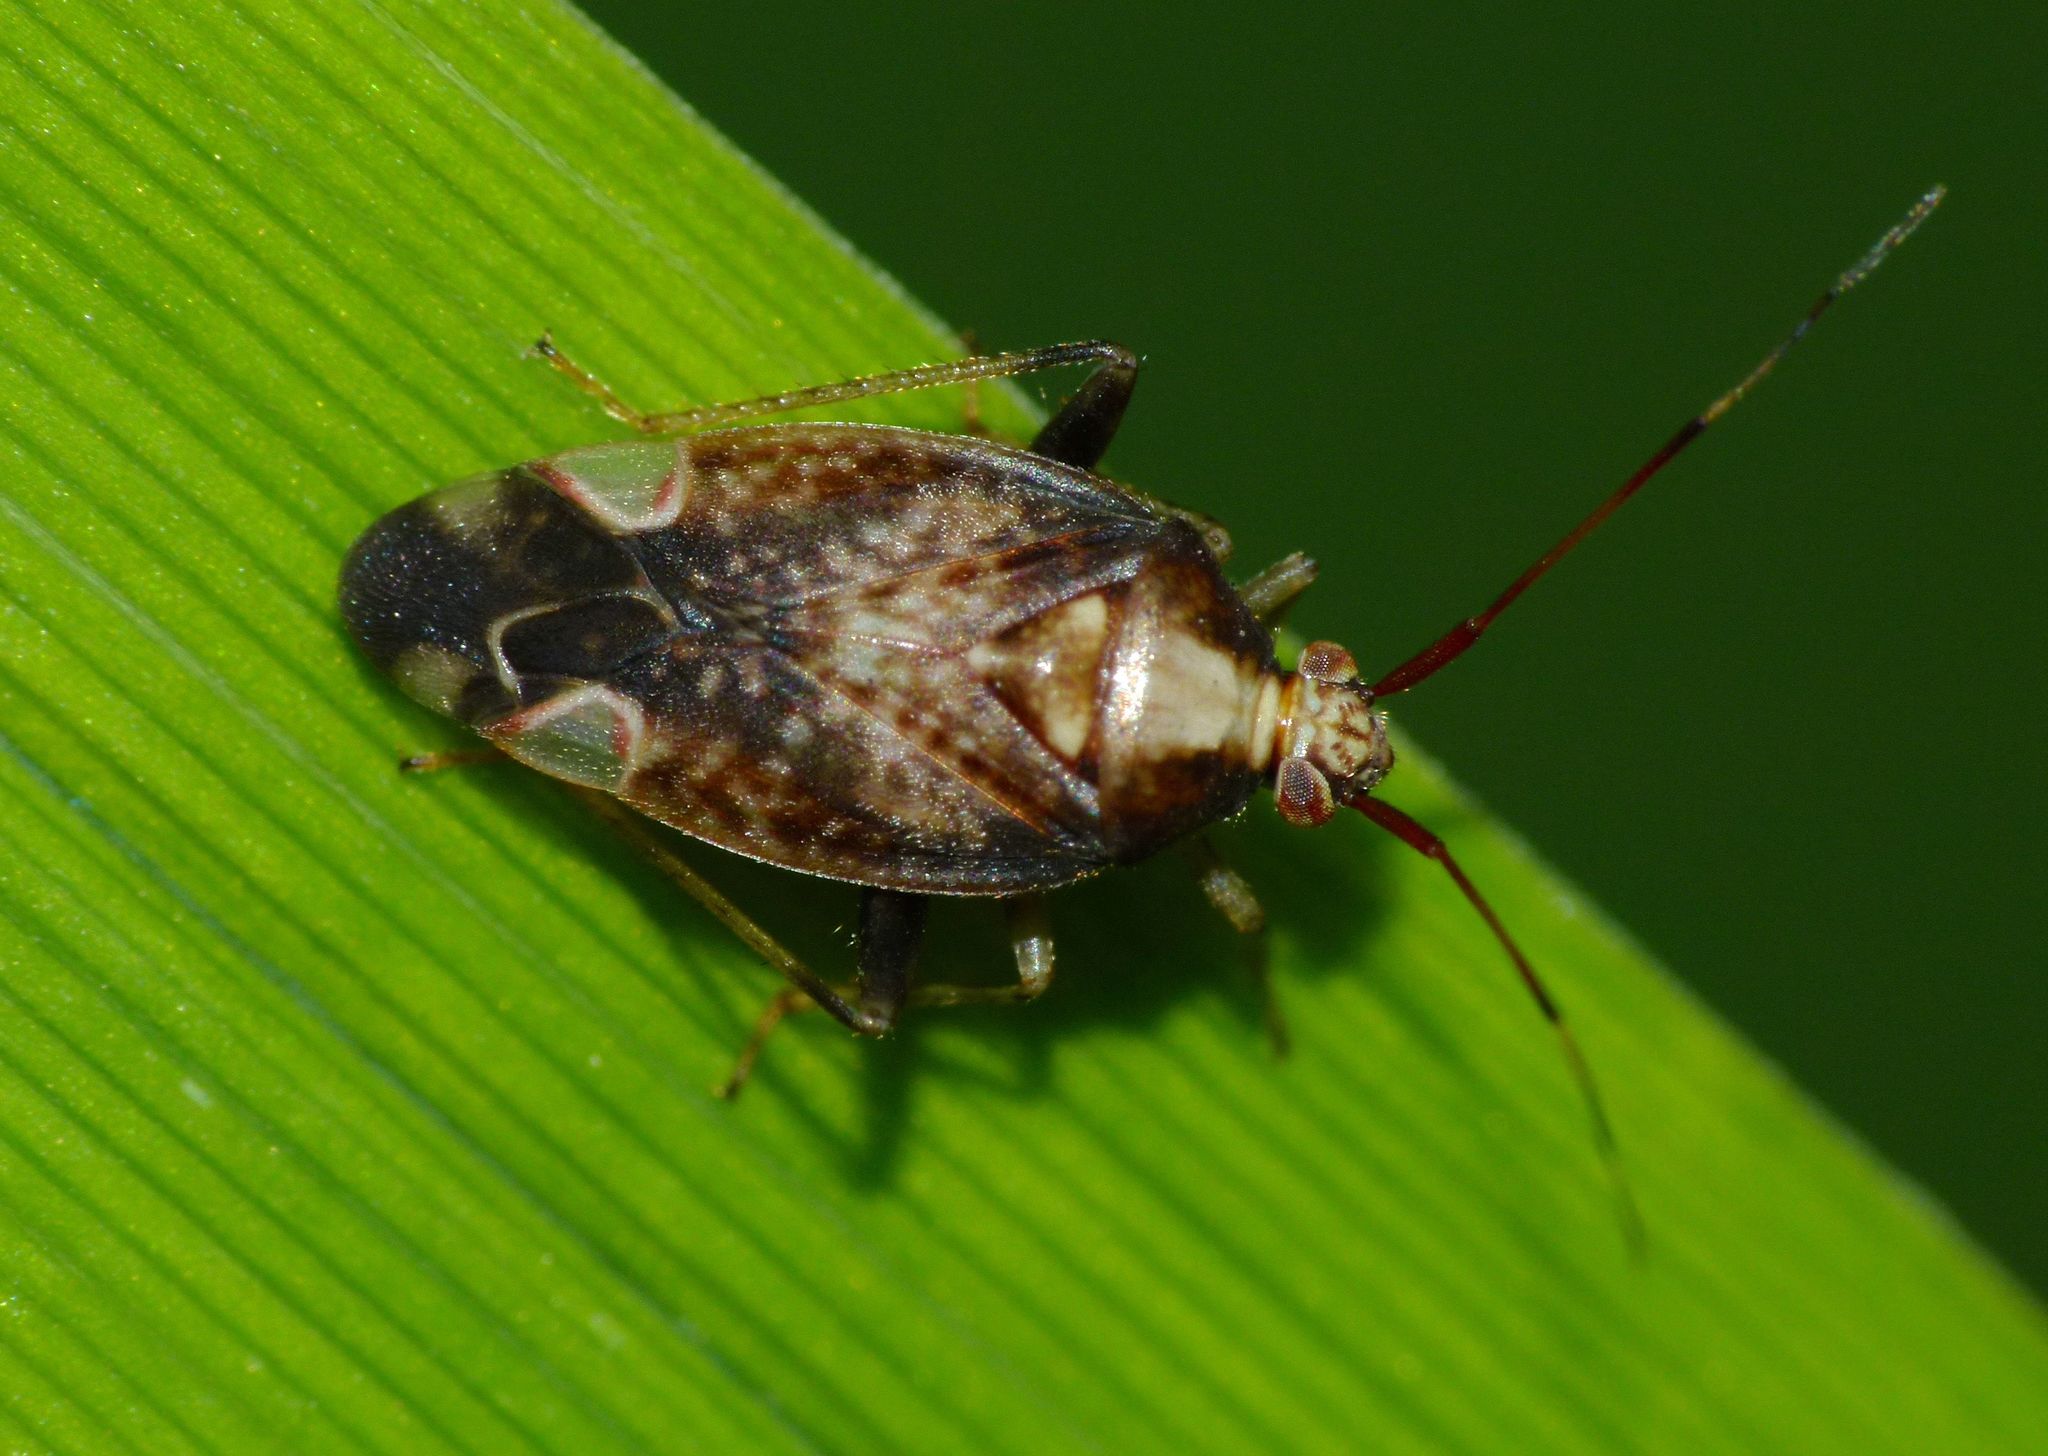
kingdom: Animalia
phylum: Arthropoda
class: Insecta
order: Hemiptera
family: Miridae
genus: Chinamiris
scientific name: Chinamiris indeclivis
